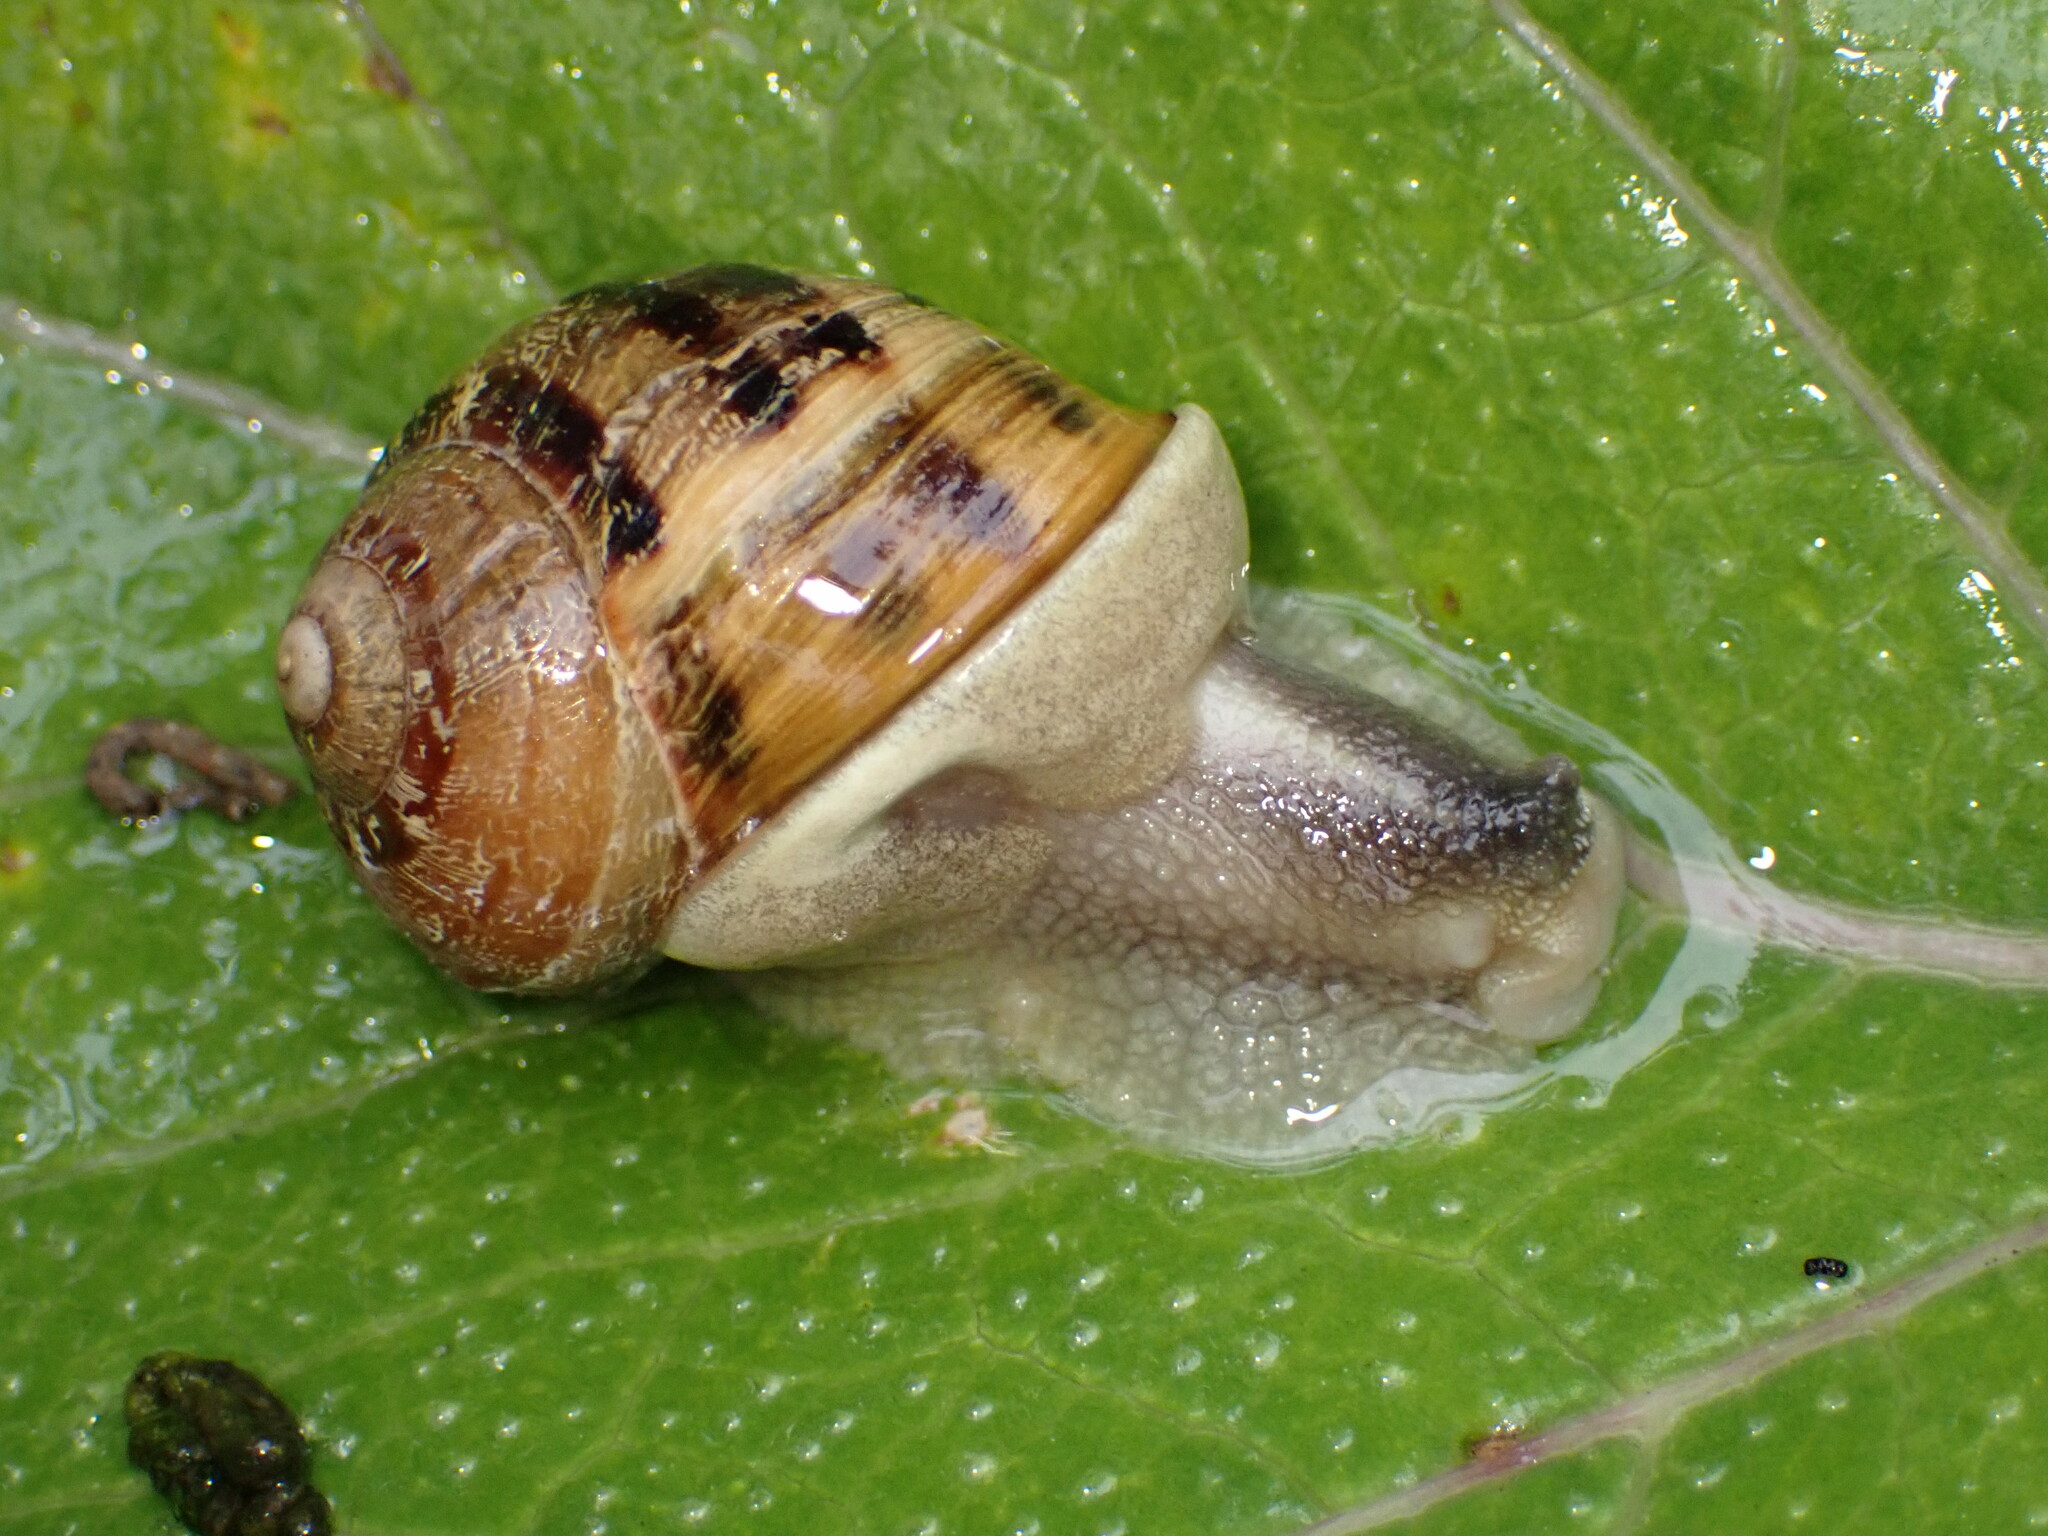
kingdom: Animalia
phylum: Mollusca
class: Gastropoda
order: Stylommatophora
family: Helicidae
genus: Cornu
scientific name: Cornu aspersum
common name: Brown garden snail
